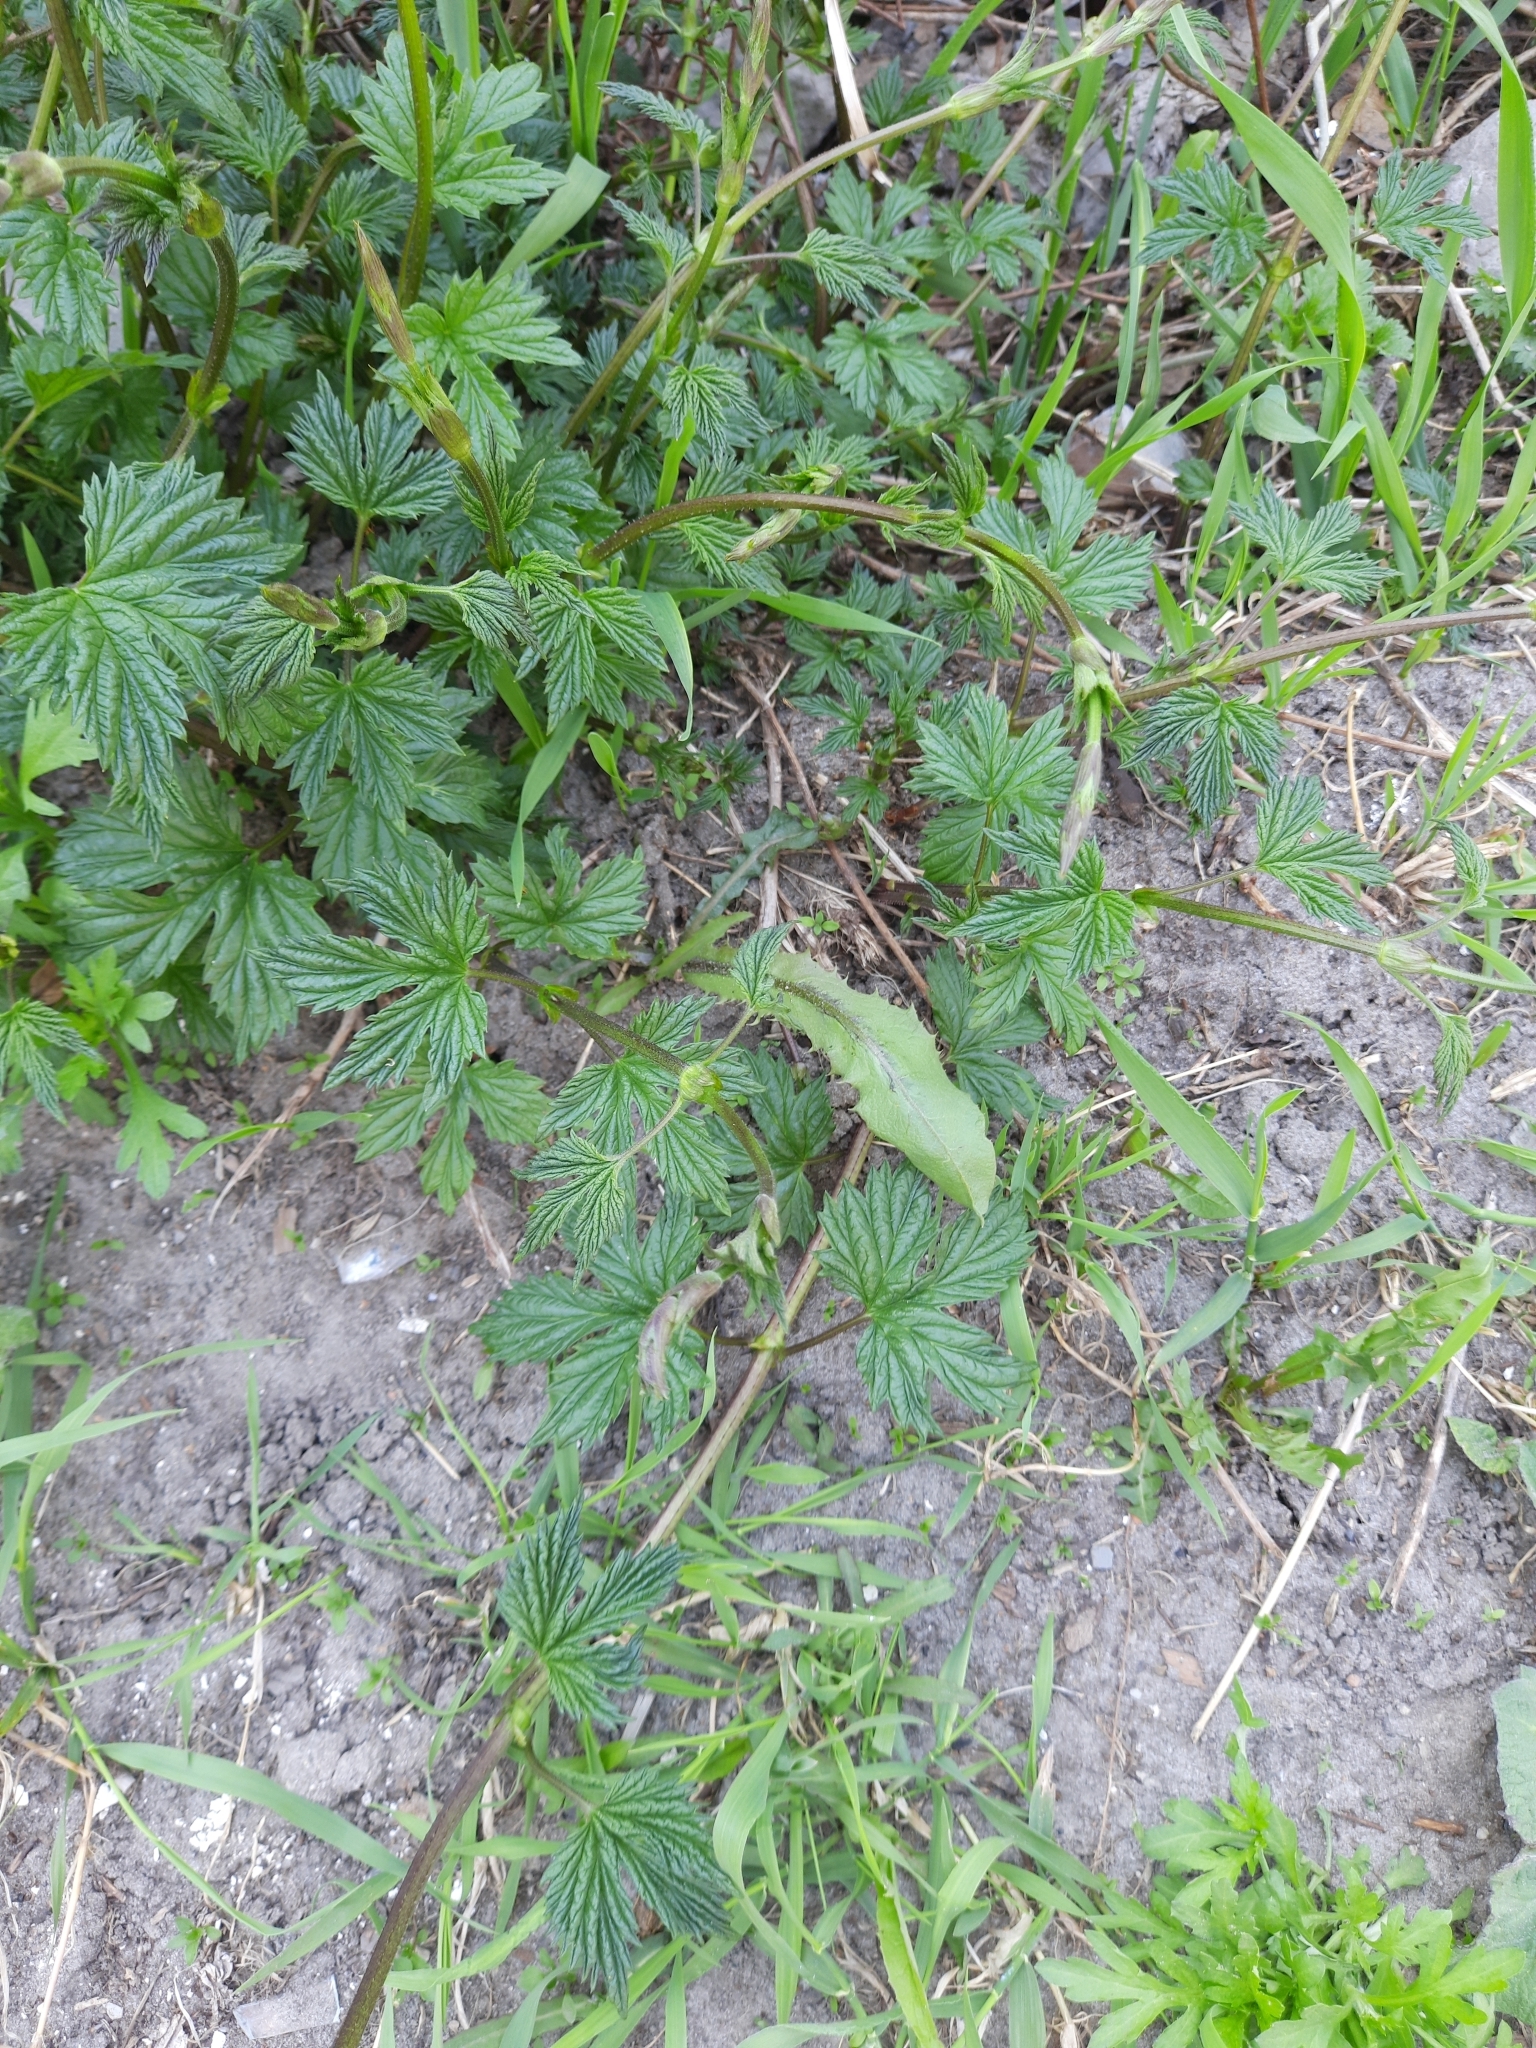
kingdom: Plantae
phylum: Tracheophyta
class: Magnoliopsida
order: Rosales
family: Cannabaceae
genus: Humulus
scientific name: Humulus lupulus
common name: Hop
